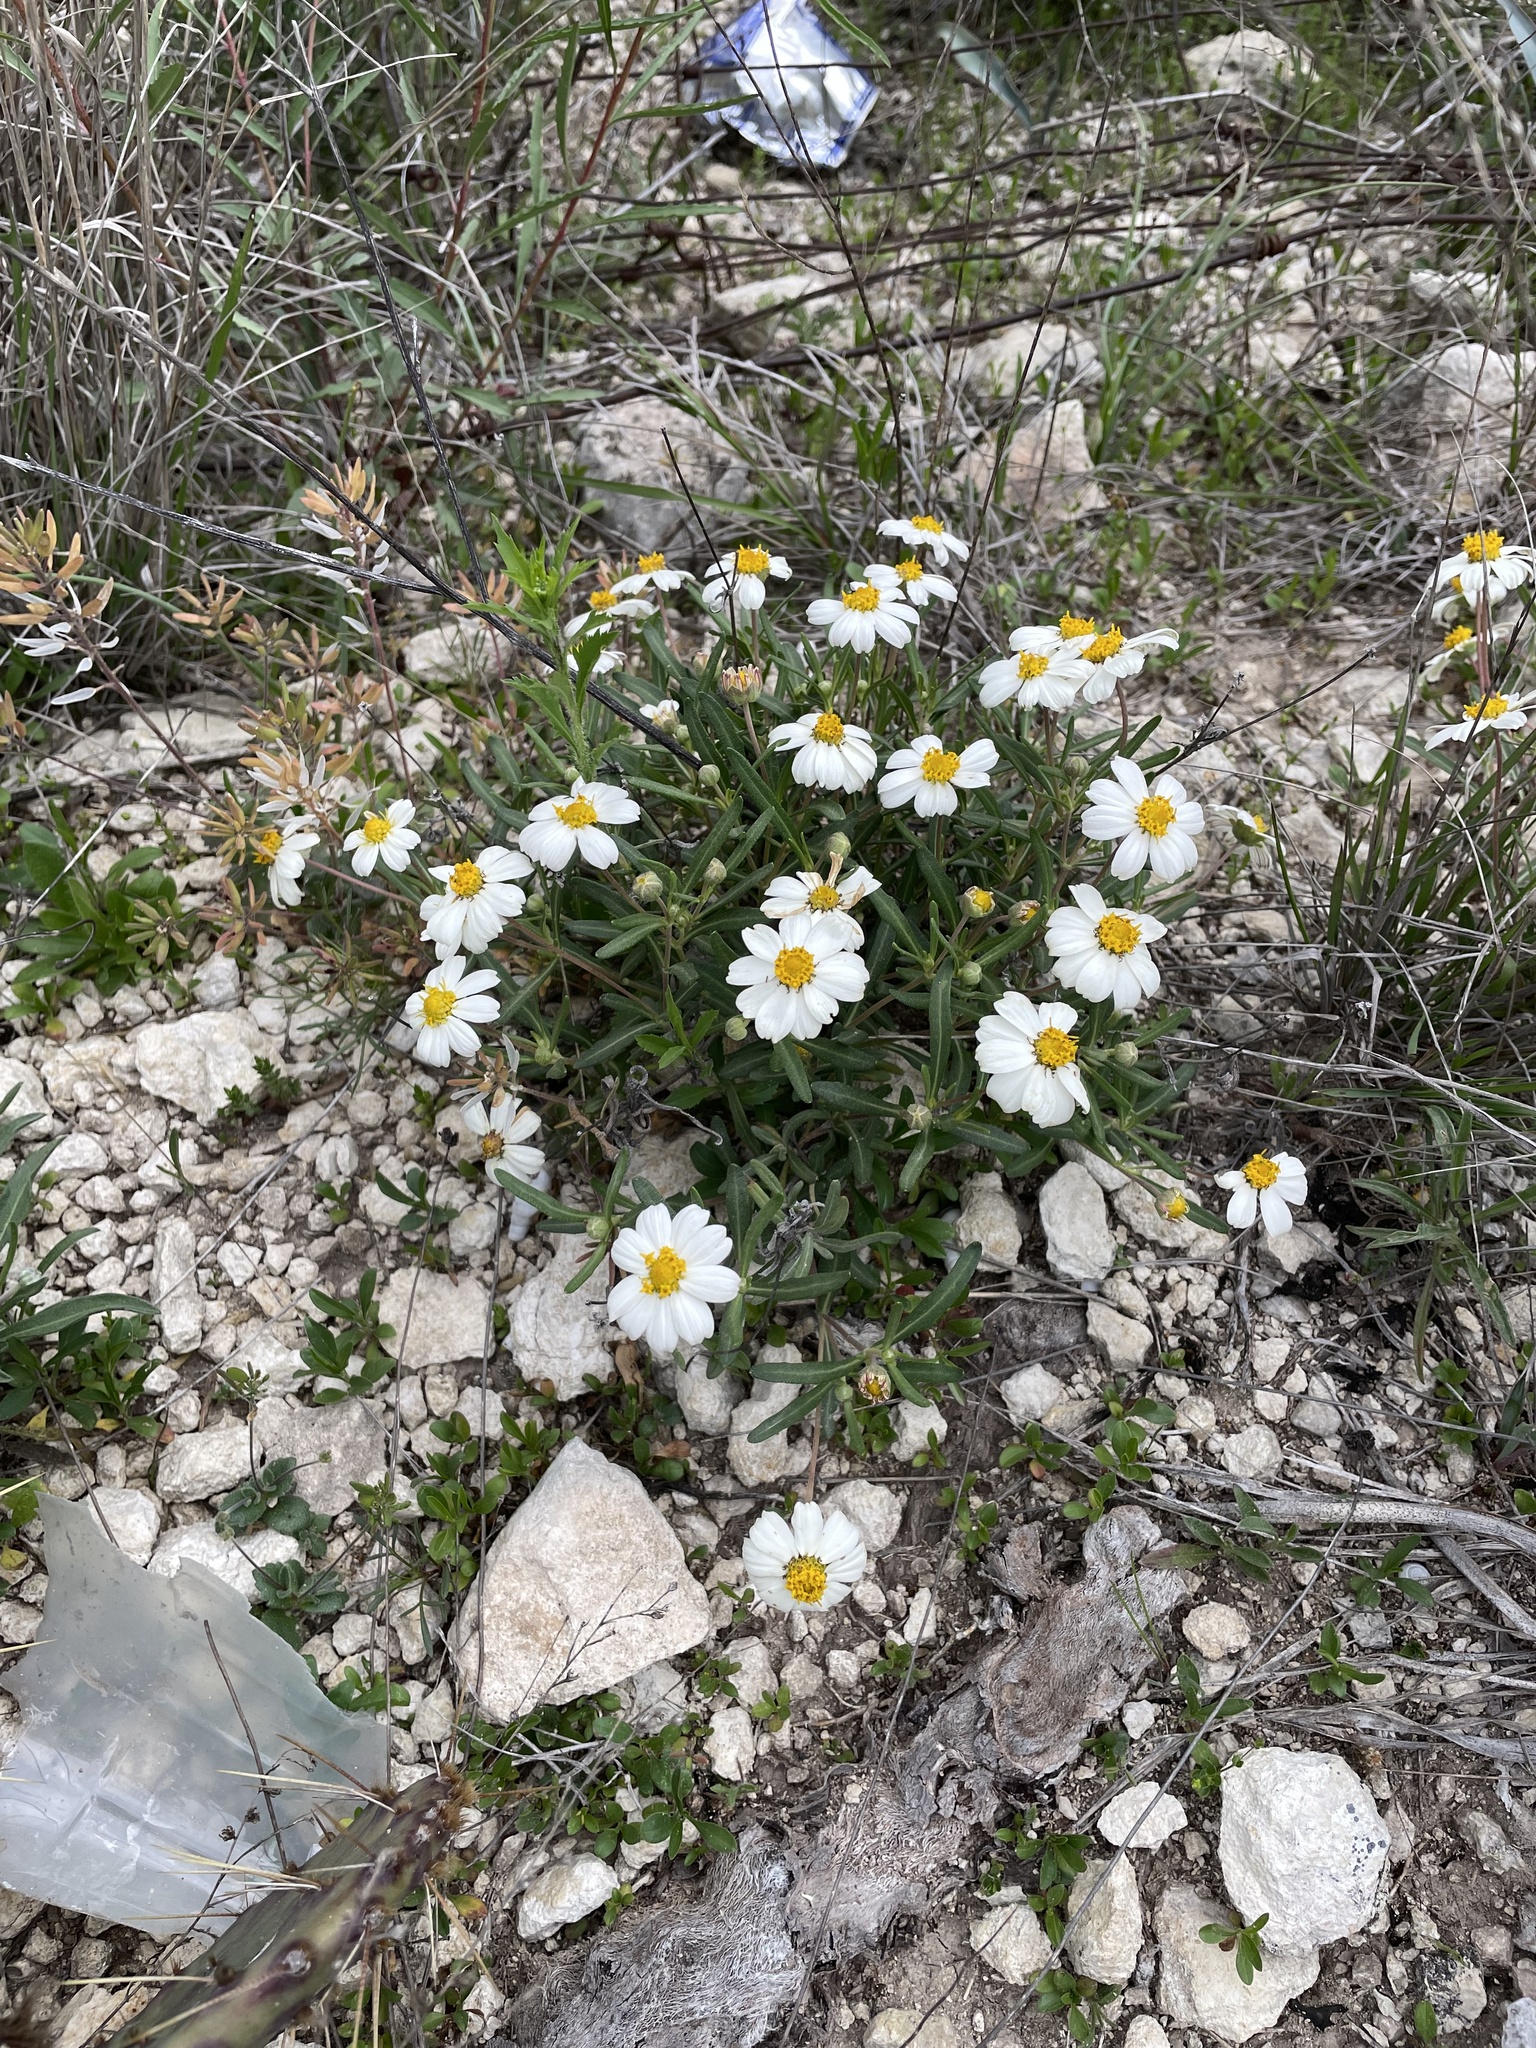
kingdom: Plantae
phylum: Tracheophyta
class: Magnoliopsida
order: Asterales
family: Asteraceae
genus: Melampodium
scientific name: Melampodium leucanthum
